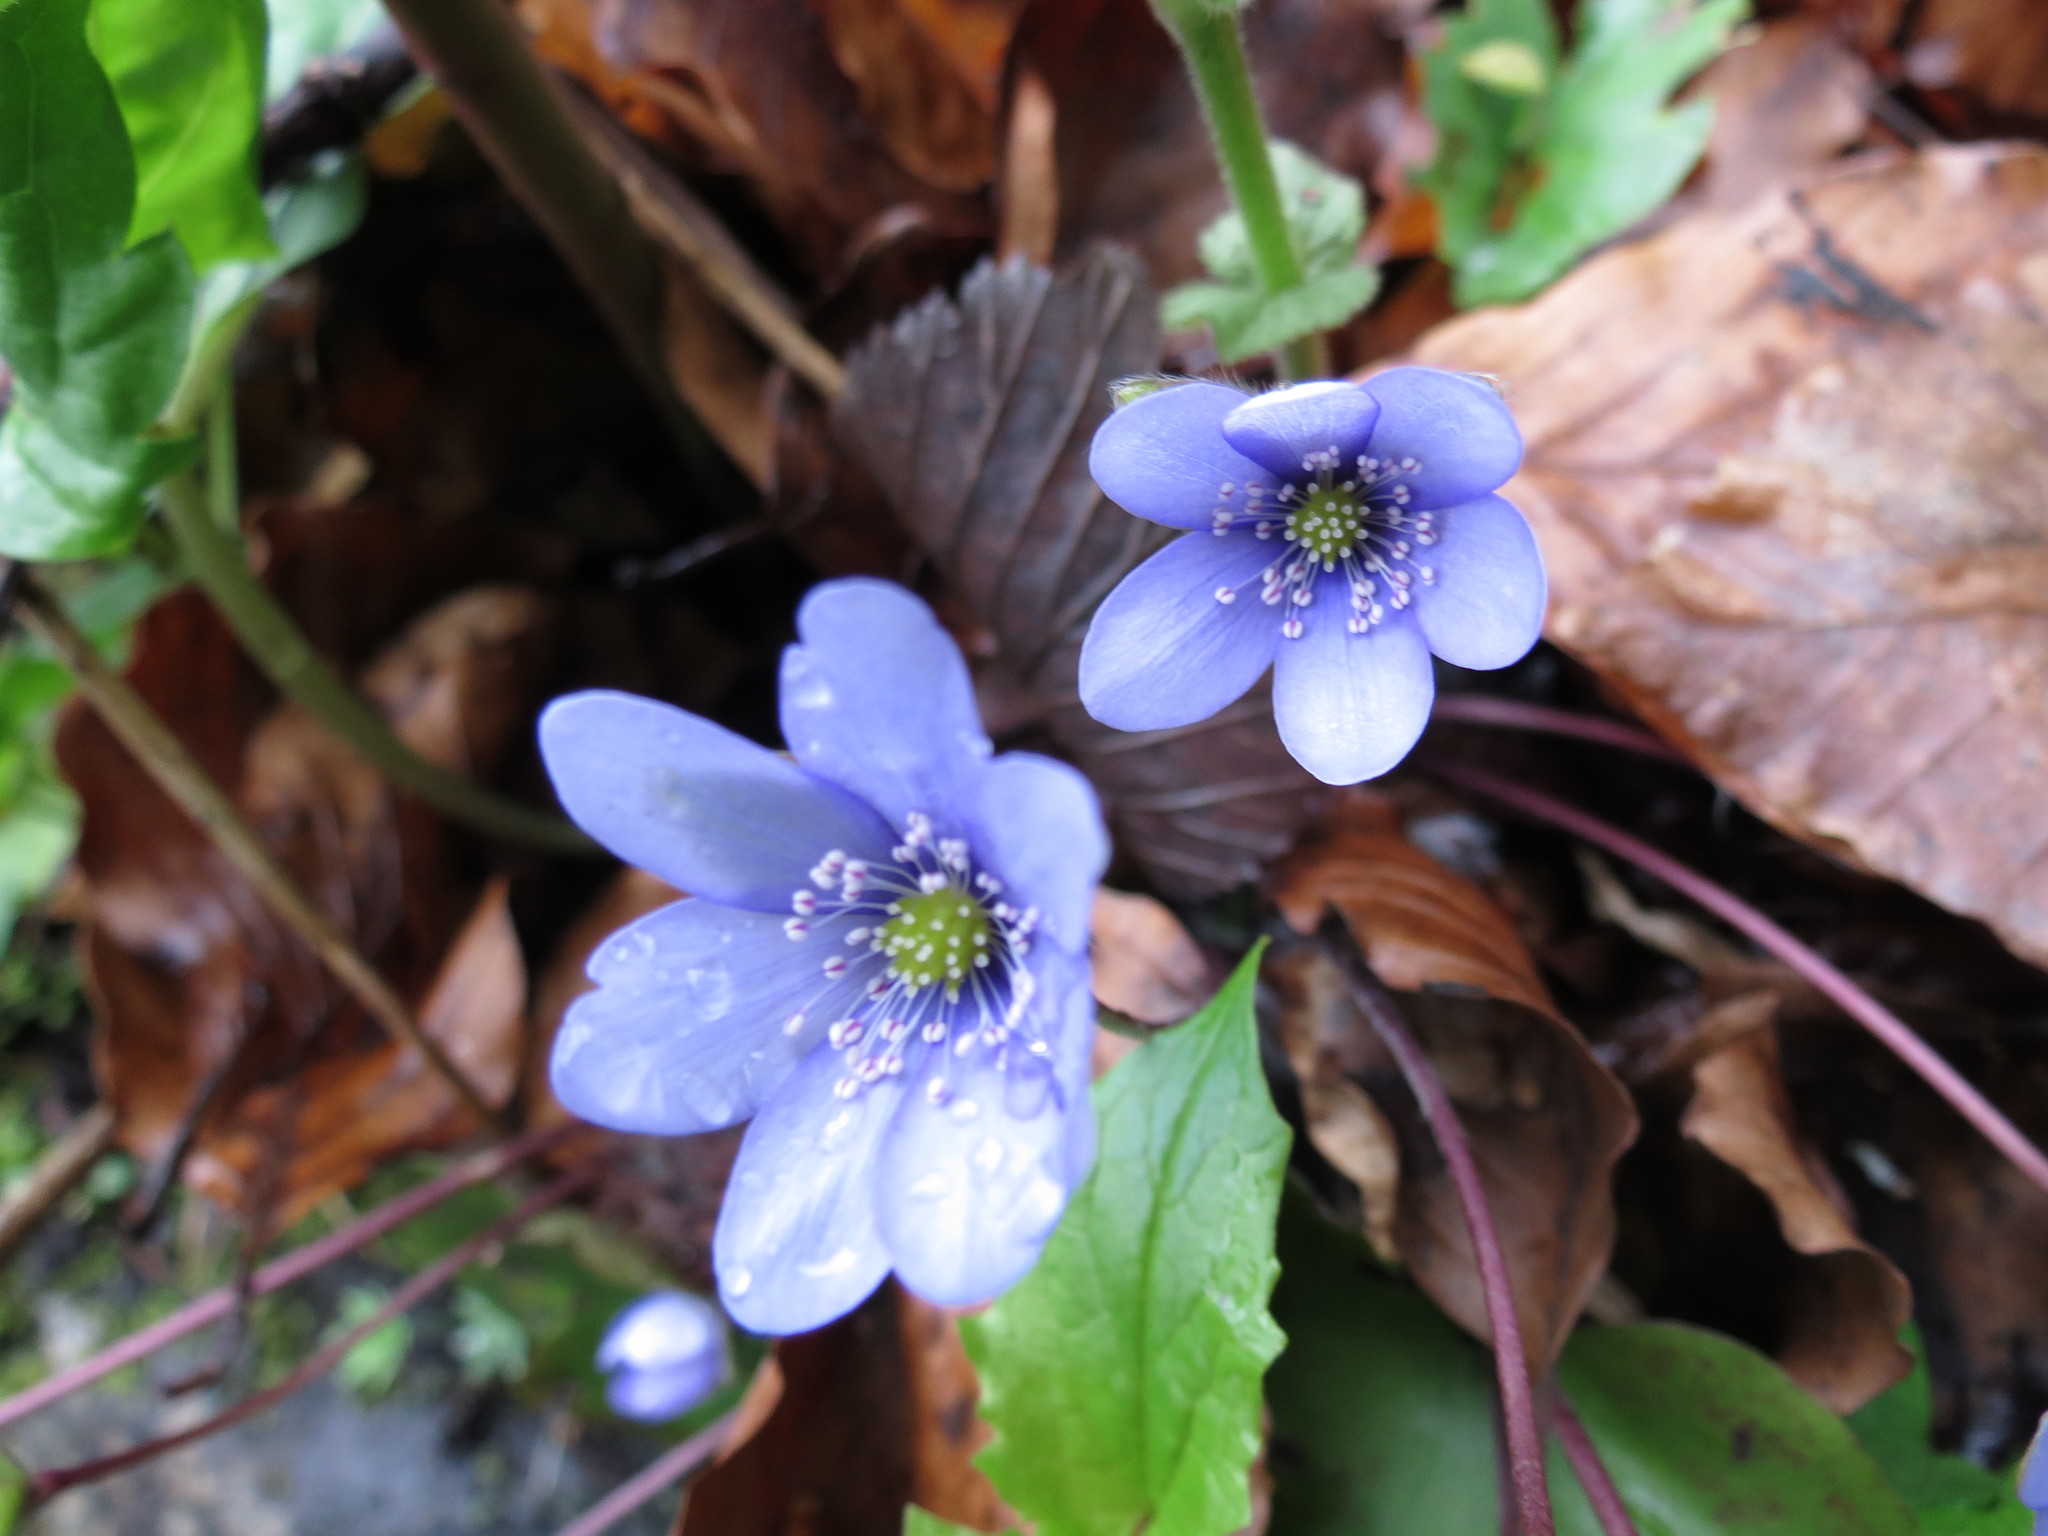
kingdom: Plantae
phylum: Tracheophyta
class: Magnoliopsida
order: Ranunculales
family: Ranunculaceae
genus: Hepatica
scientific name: Hepatica nobilis
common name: Liverleaf
